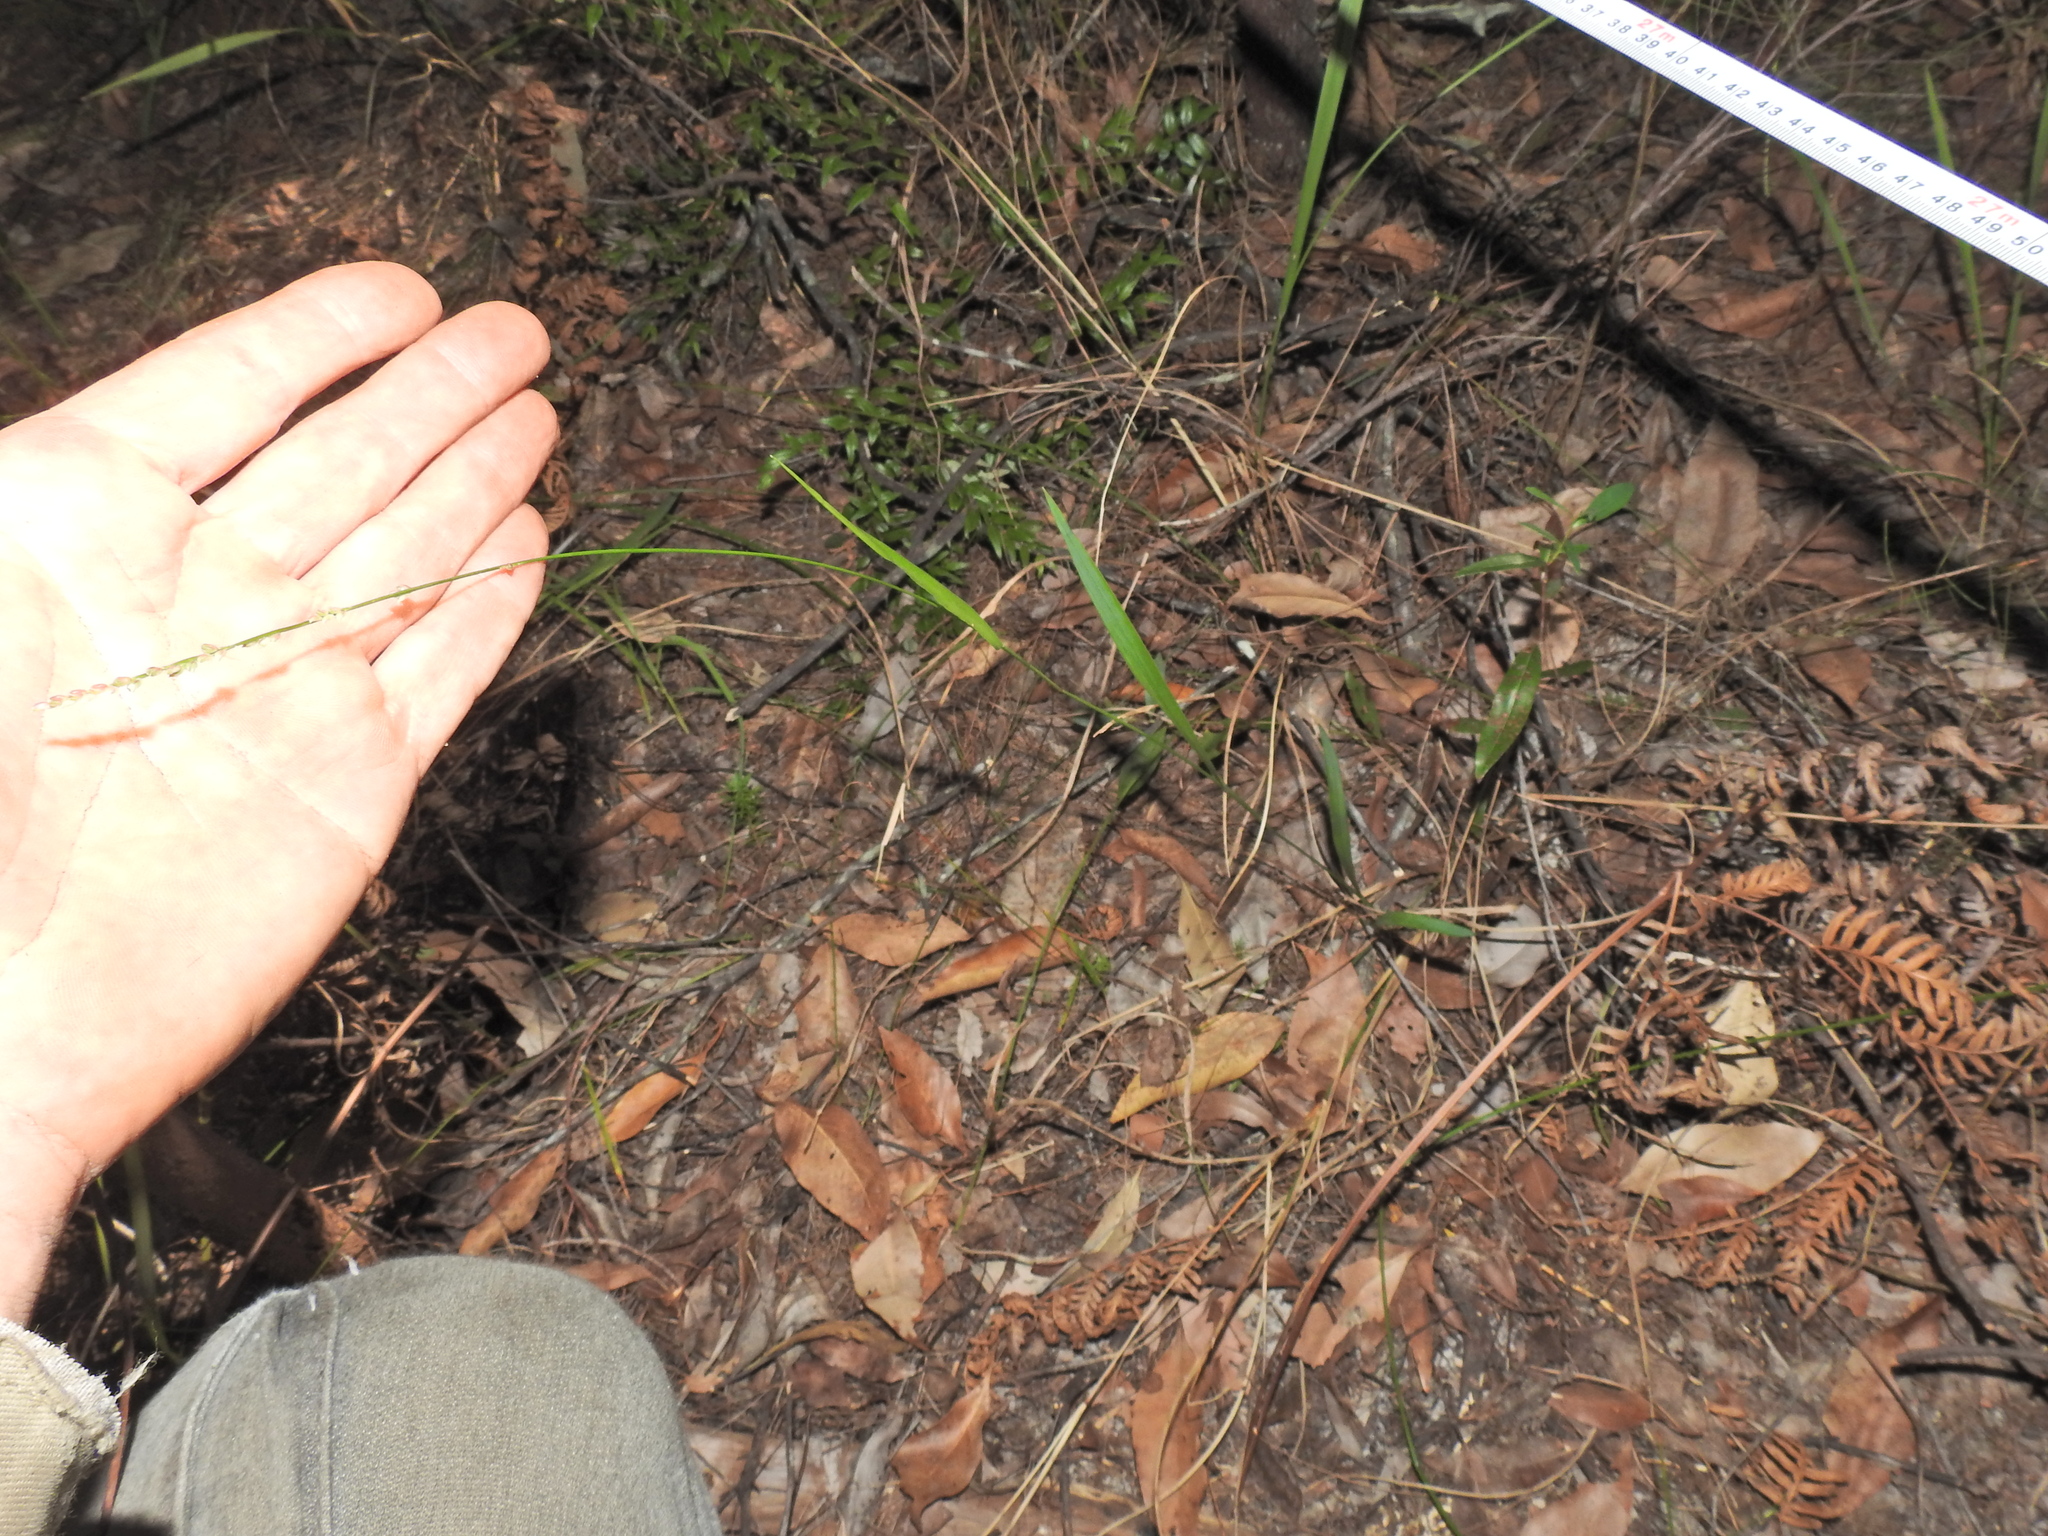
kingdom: Plantae
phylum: Tracheophyta
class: Liliopsida
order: Poales
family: Poaceae
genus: Setaria
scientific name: Setaria gausa
